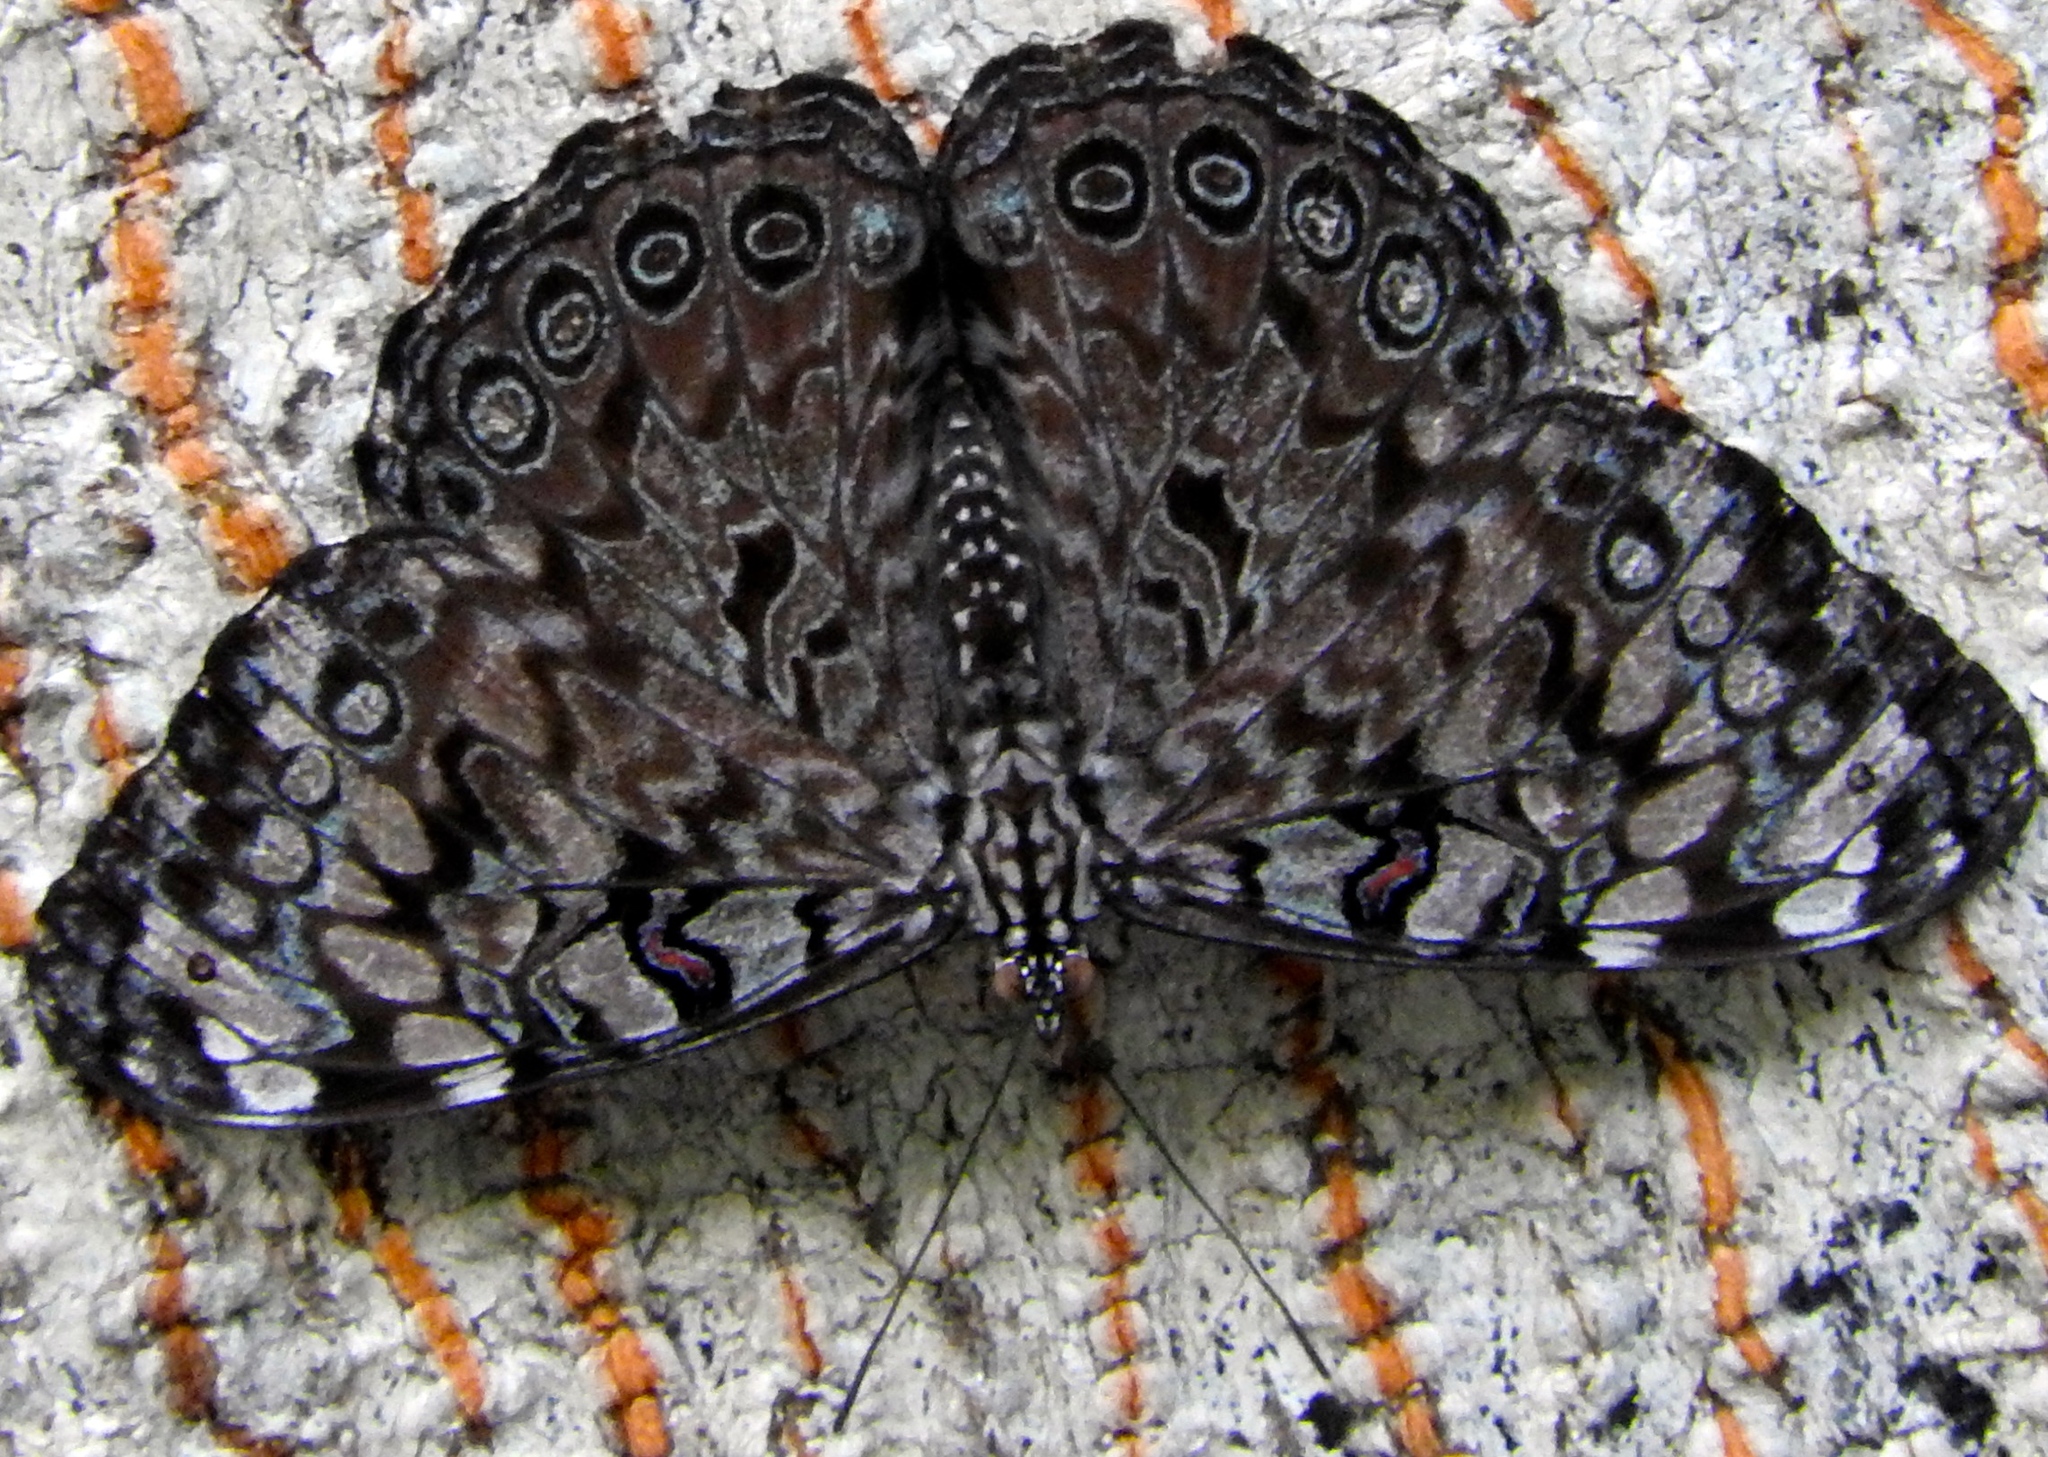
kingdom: Animalia
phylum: Arthropoda
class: Insecta
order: Lepidoptera
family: Nymphalidae
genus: Hamadryas
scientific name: Hamadryas guatemalena
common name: Guatemalan cracker
